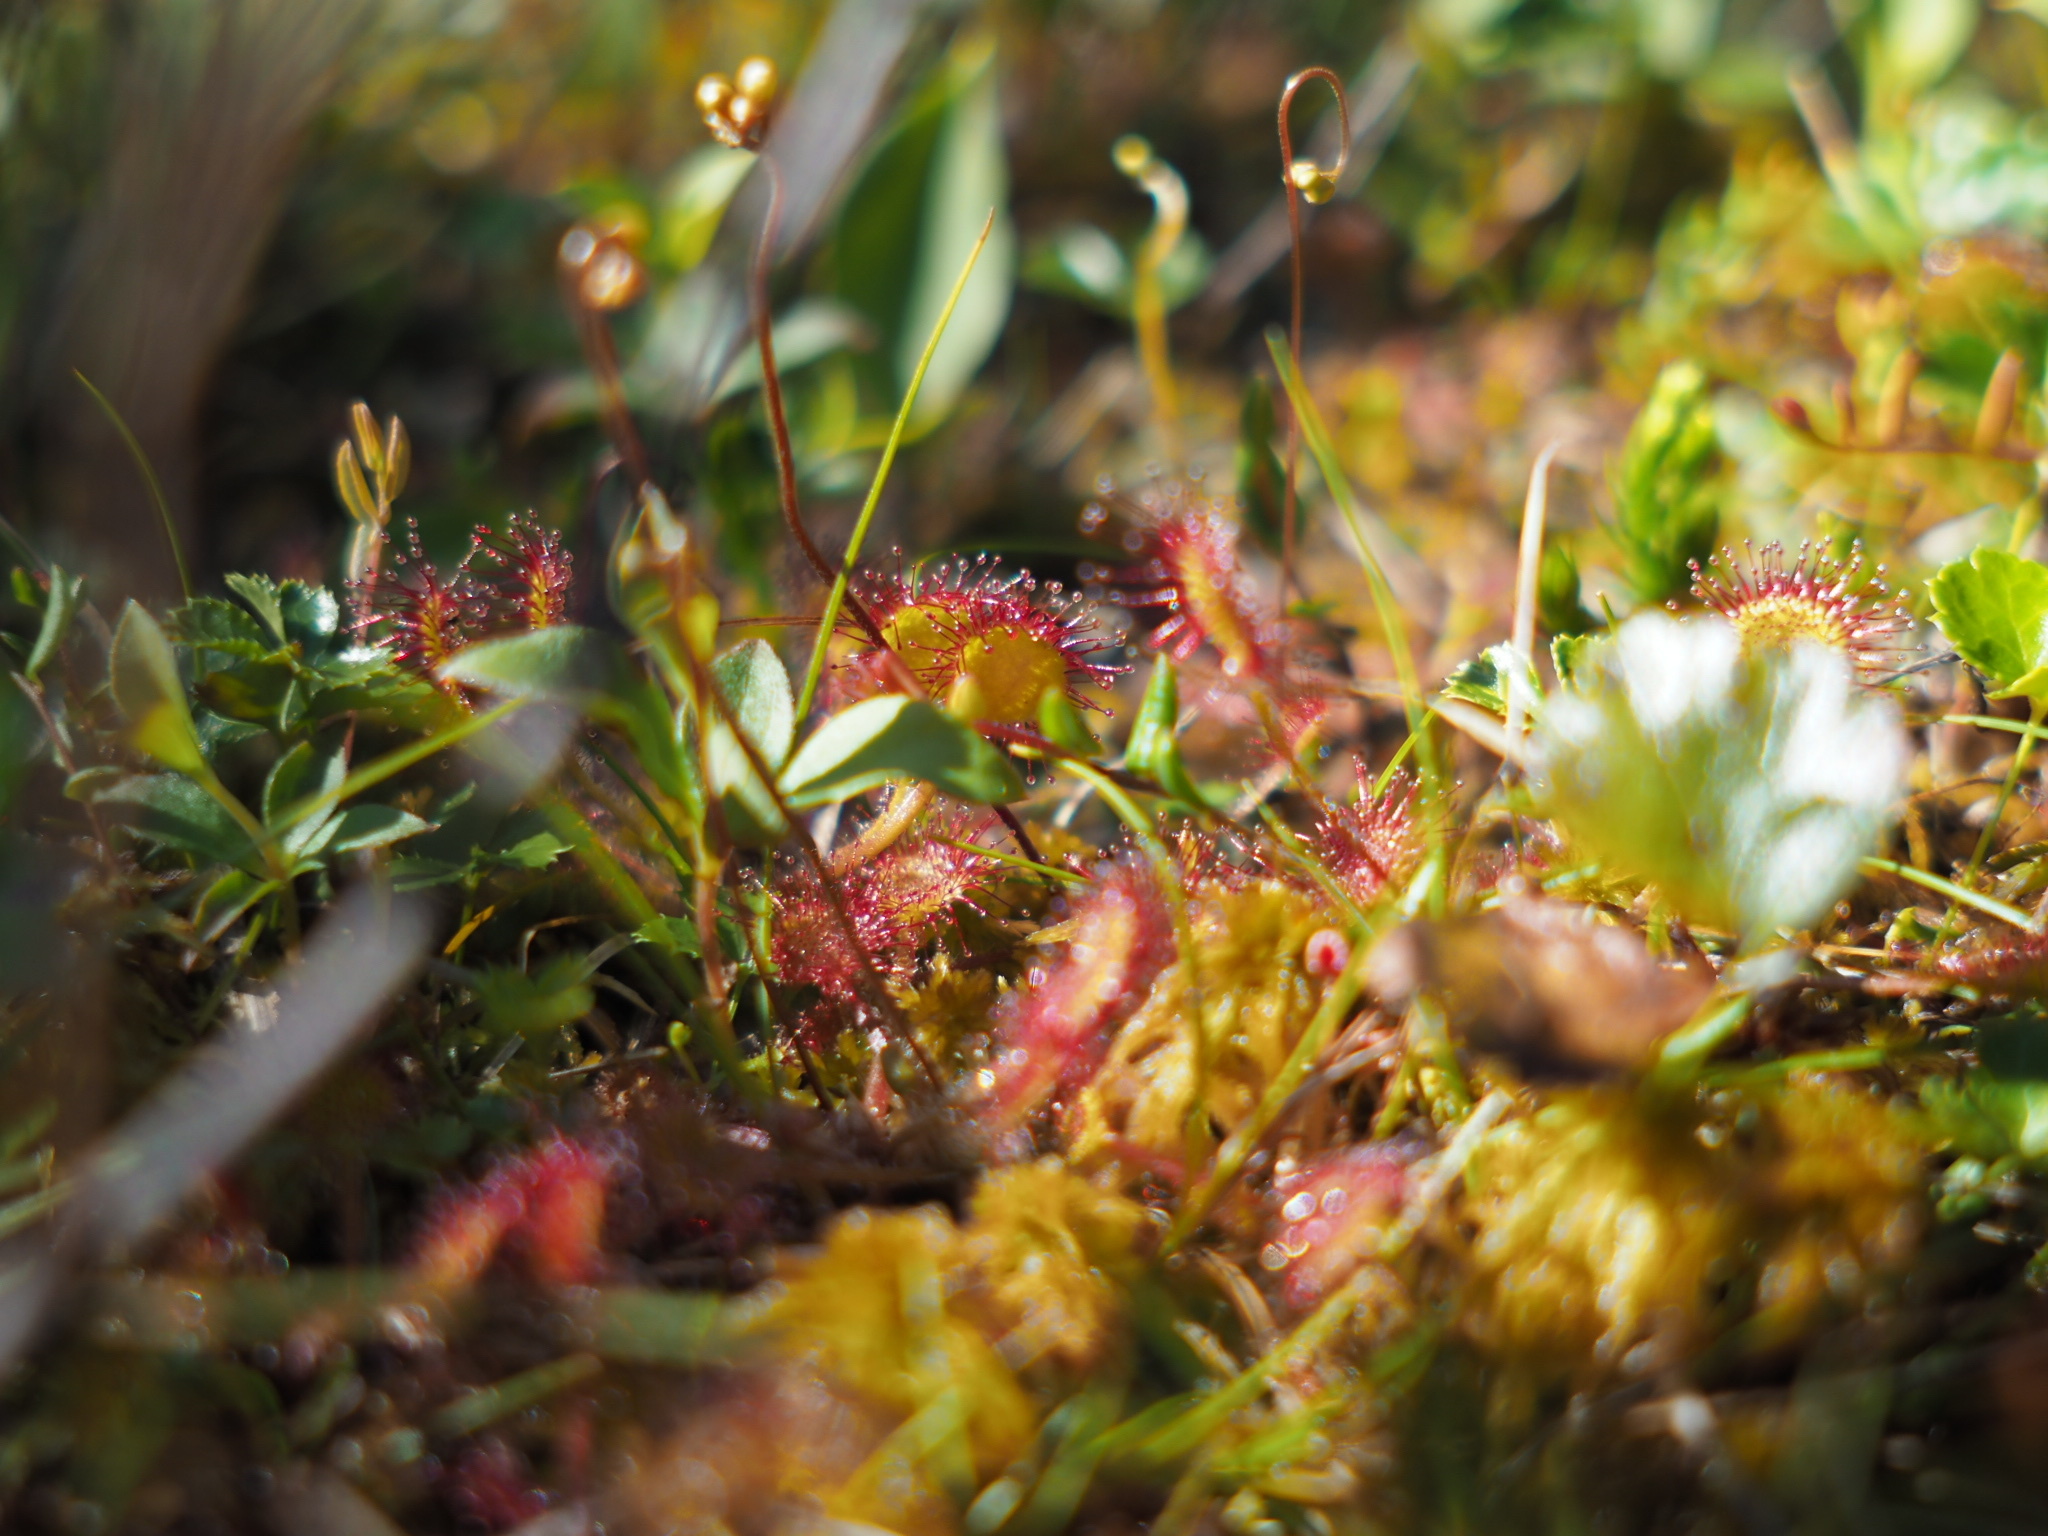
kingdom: Plantae
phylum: Tracheophyta
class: Magnoliopsida
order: Caryophyllales
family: Droseraceae
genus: Drosera
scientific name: Drosera rotundifolia
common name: Round-leaved sundew
